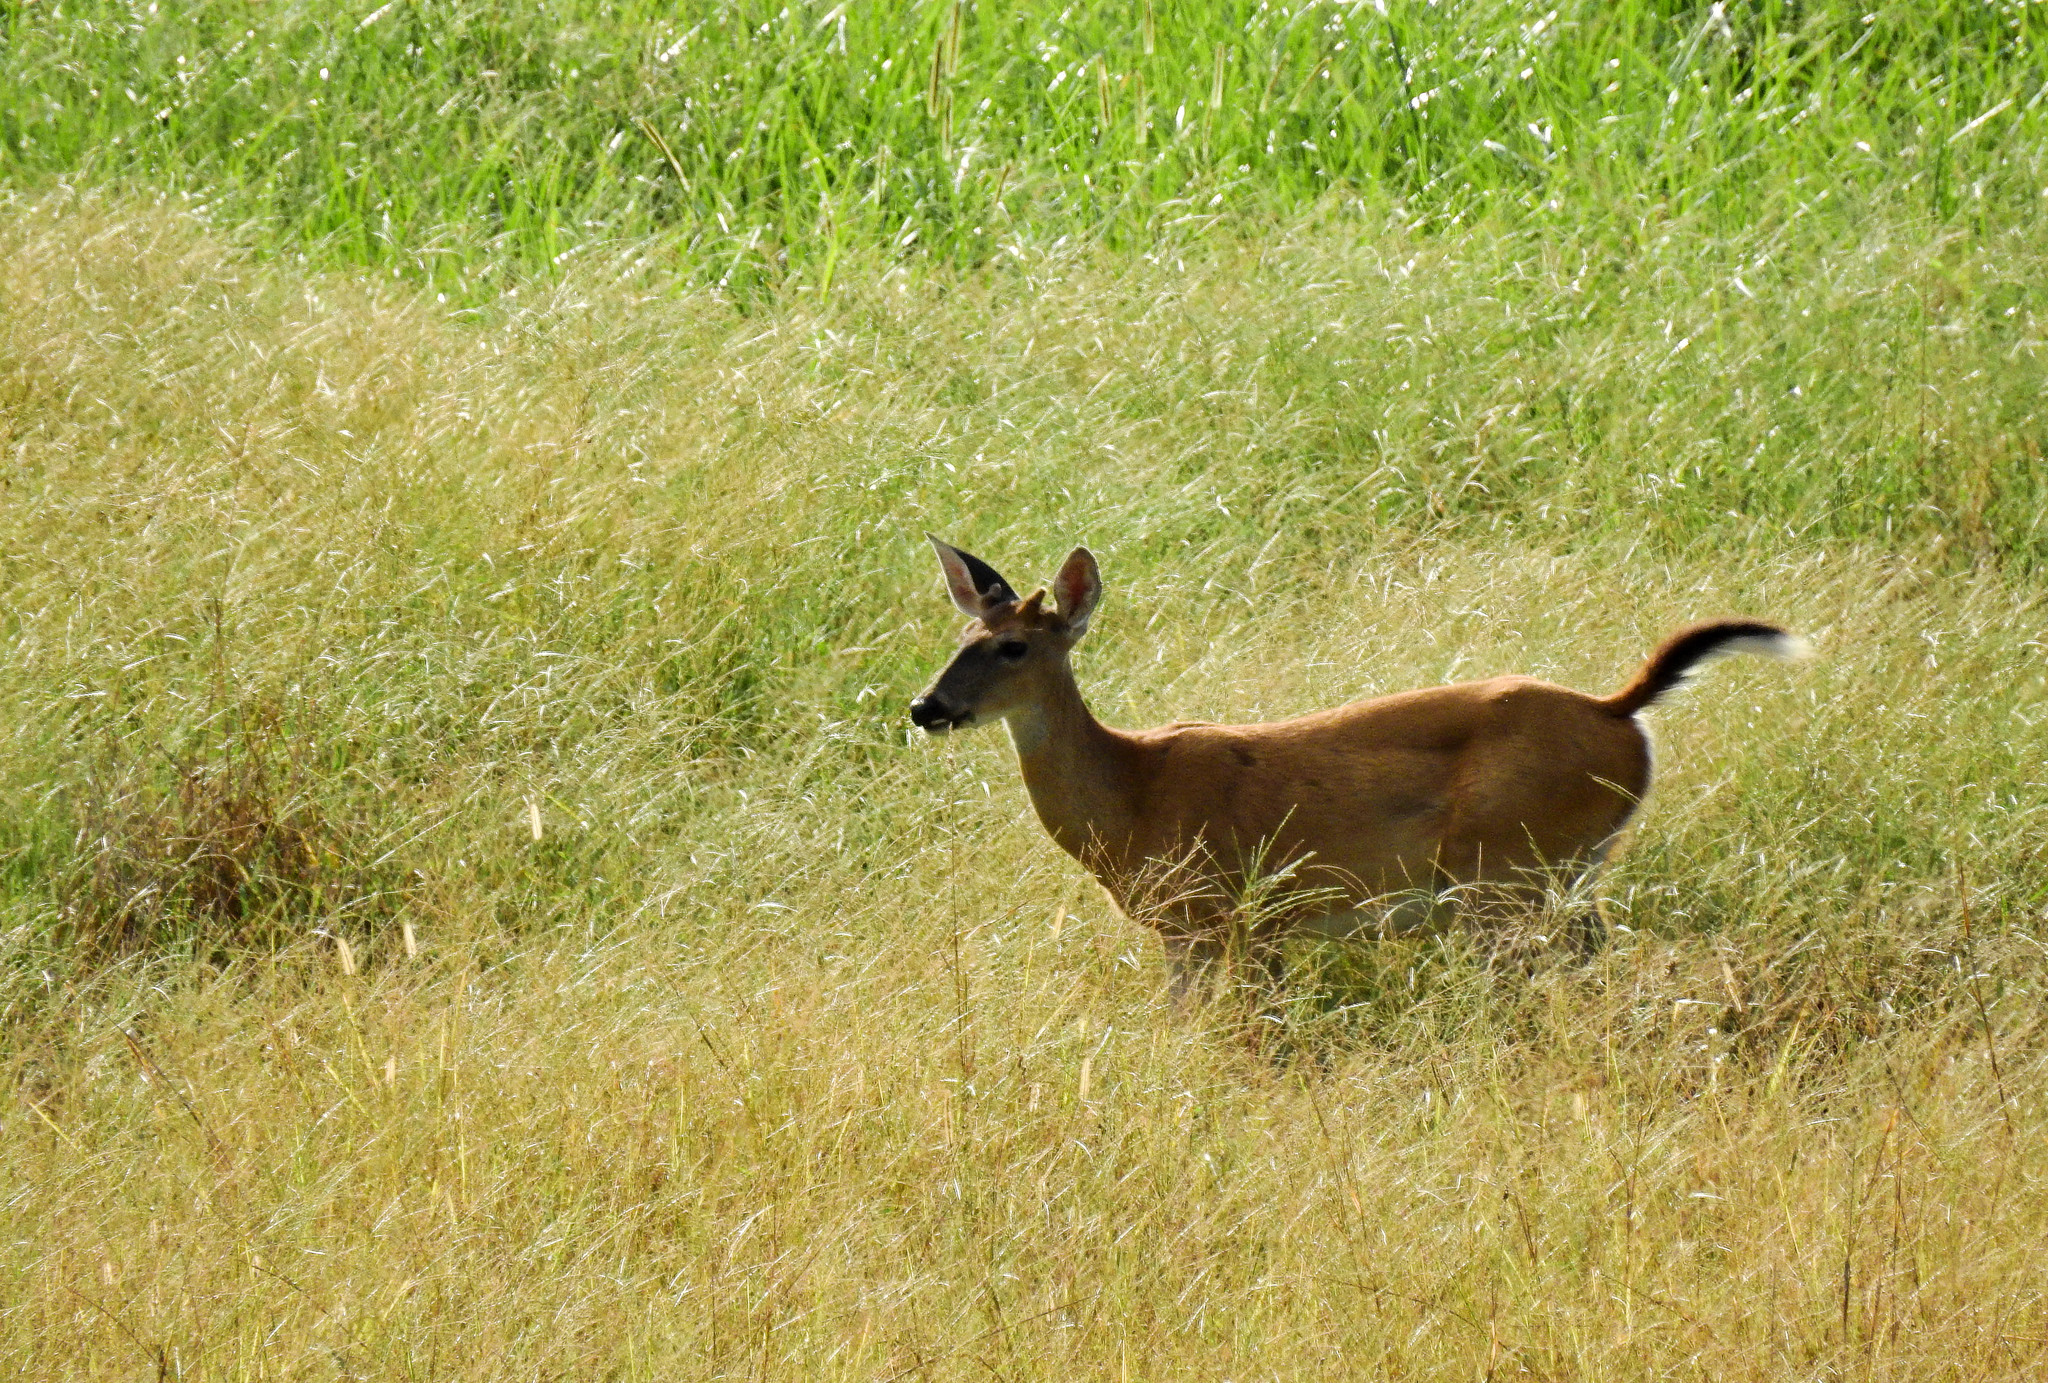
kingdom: Animalia
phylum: Chordata
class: Mammalia
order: Artiodactyla
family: Cervidae
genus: Odocoileus
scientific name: Odocoileus virginianus
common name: White-tailed deer
